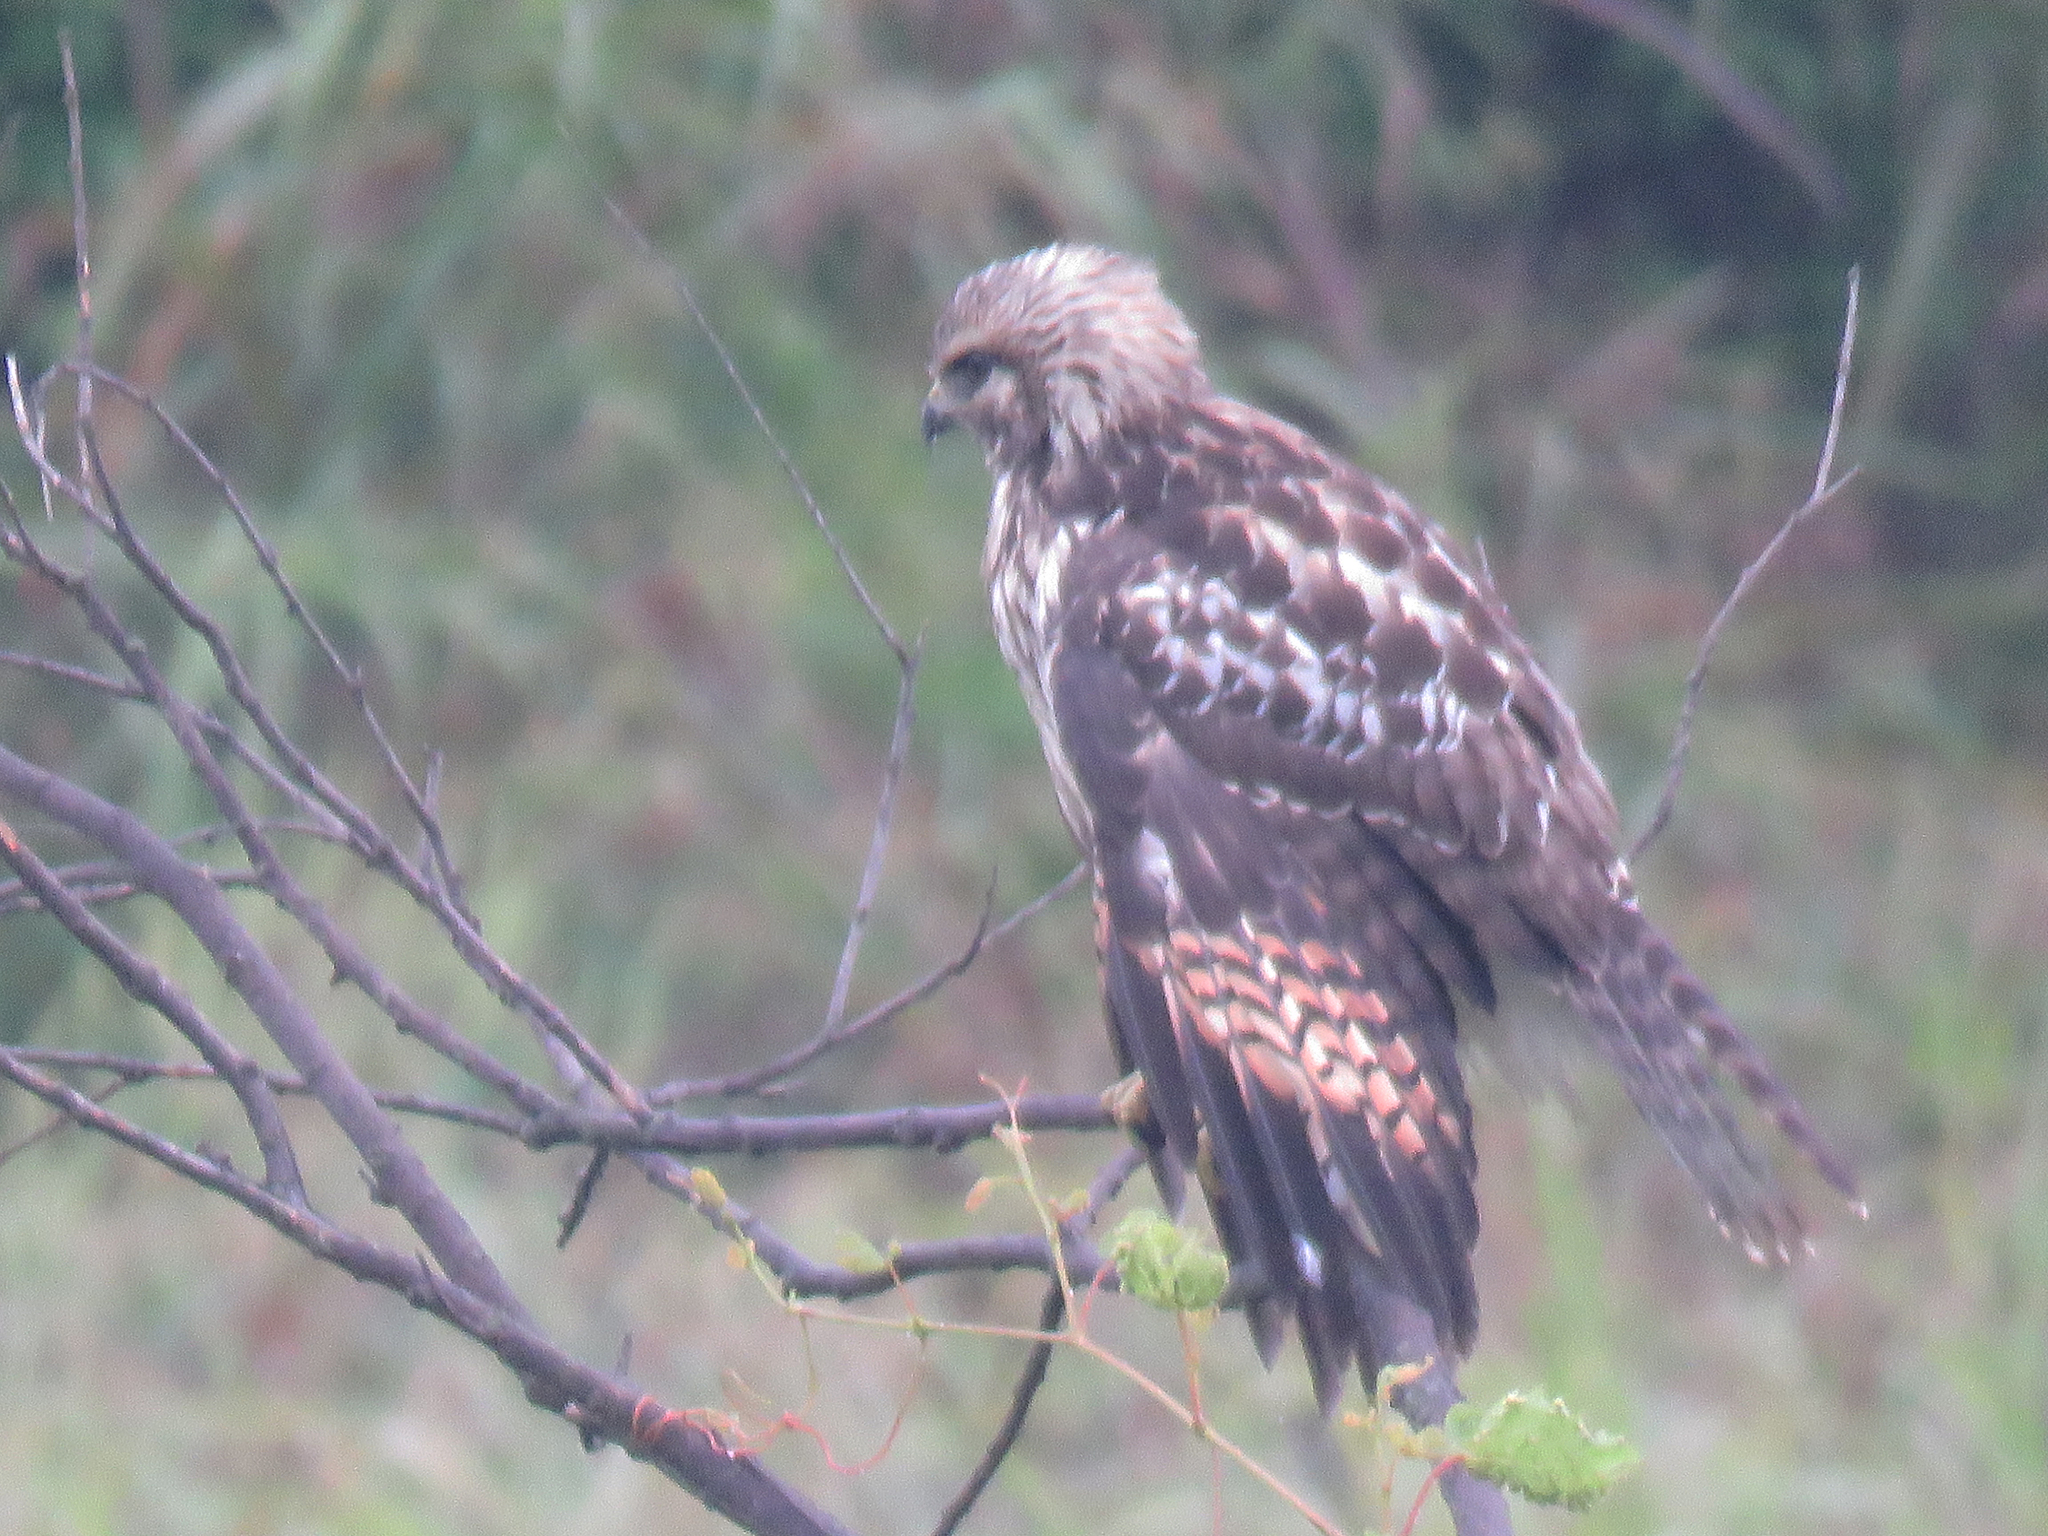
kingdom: Animalia
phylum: Chordata
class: Aves
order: Accipitriformes
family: Accipitridae
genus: Buteo
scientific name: Buteo lineatus
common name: Red-shouldered hawk
